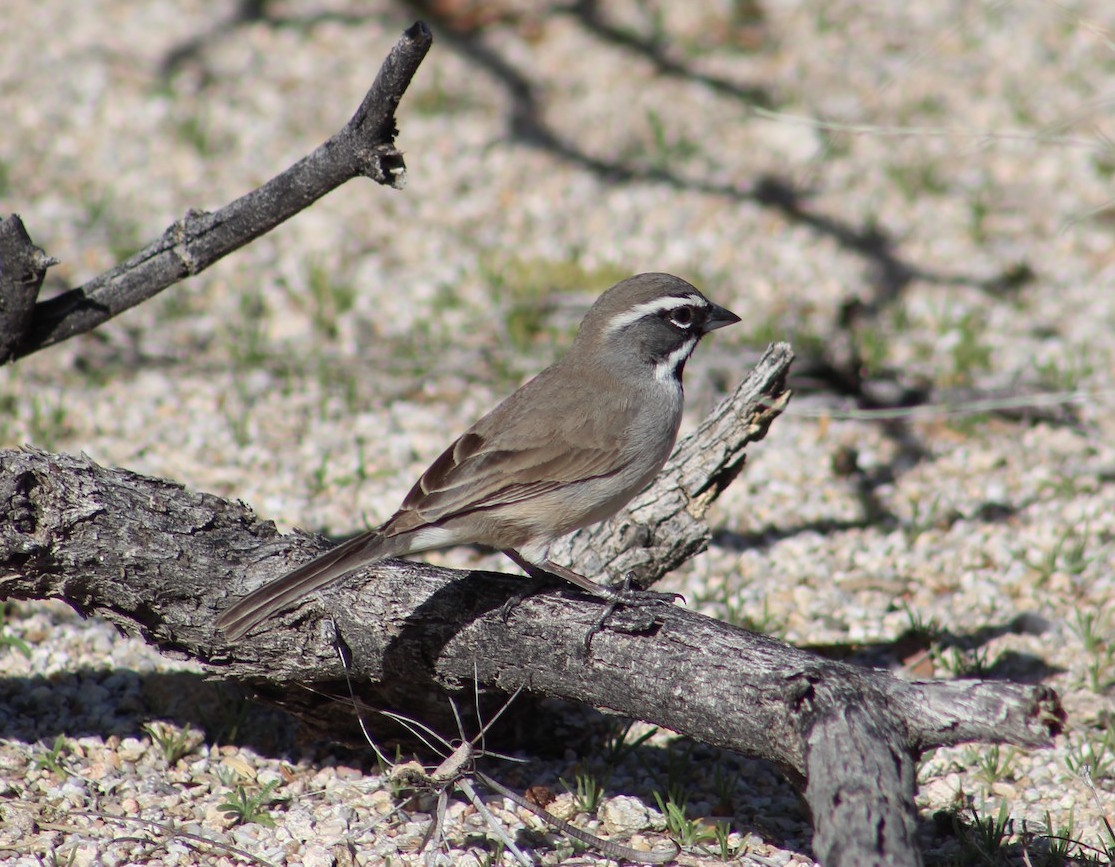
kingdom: Animalia
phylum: Chordata
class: Aves
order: Passeriformes
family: Passerellidae
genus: Amphispiza
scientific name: Amphispiza bilineata
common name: Black-throated sparrow
